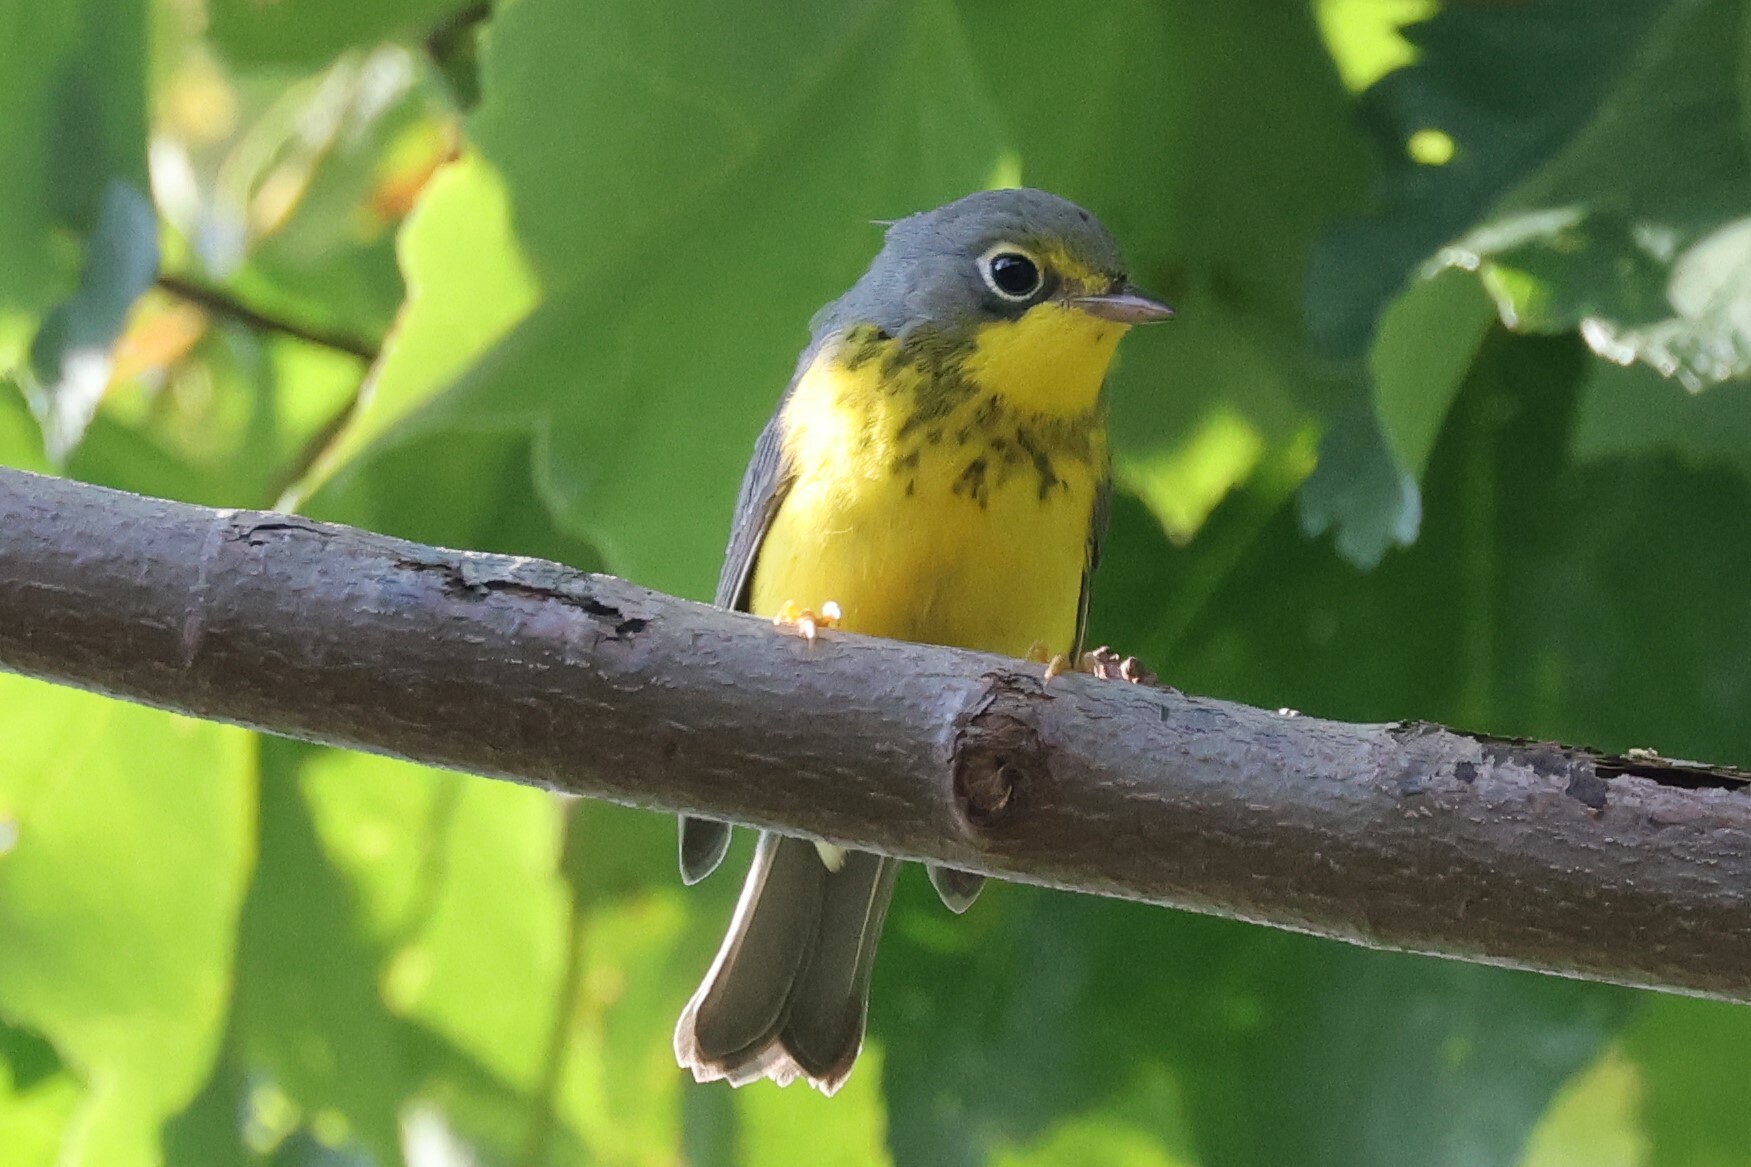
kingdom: Animalia
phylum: Chordata
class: Aves
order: Passeriformes
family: Parulidae
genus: Cardellina
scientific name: Cardellina canadensis
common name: Canada warbler
